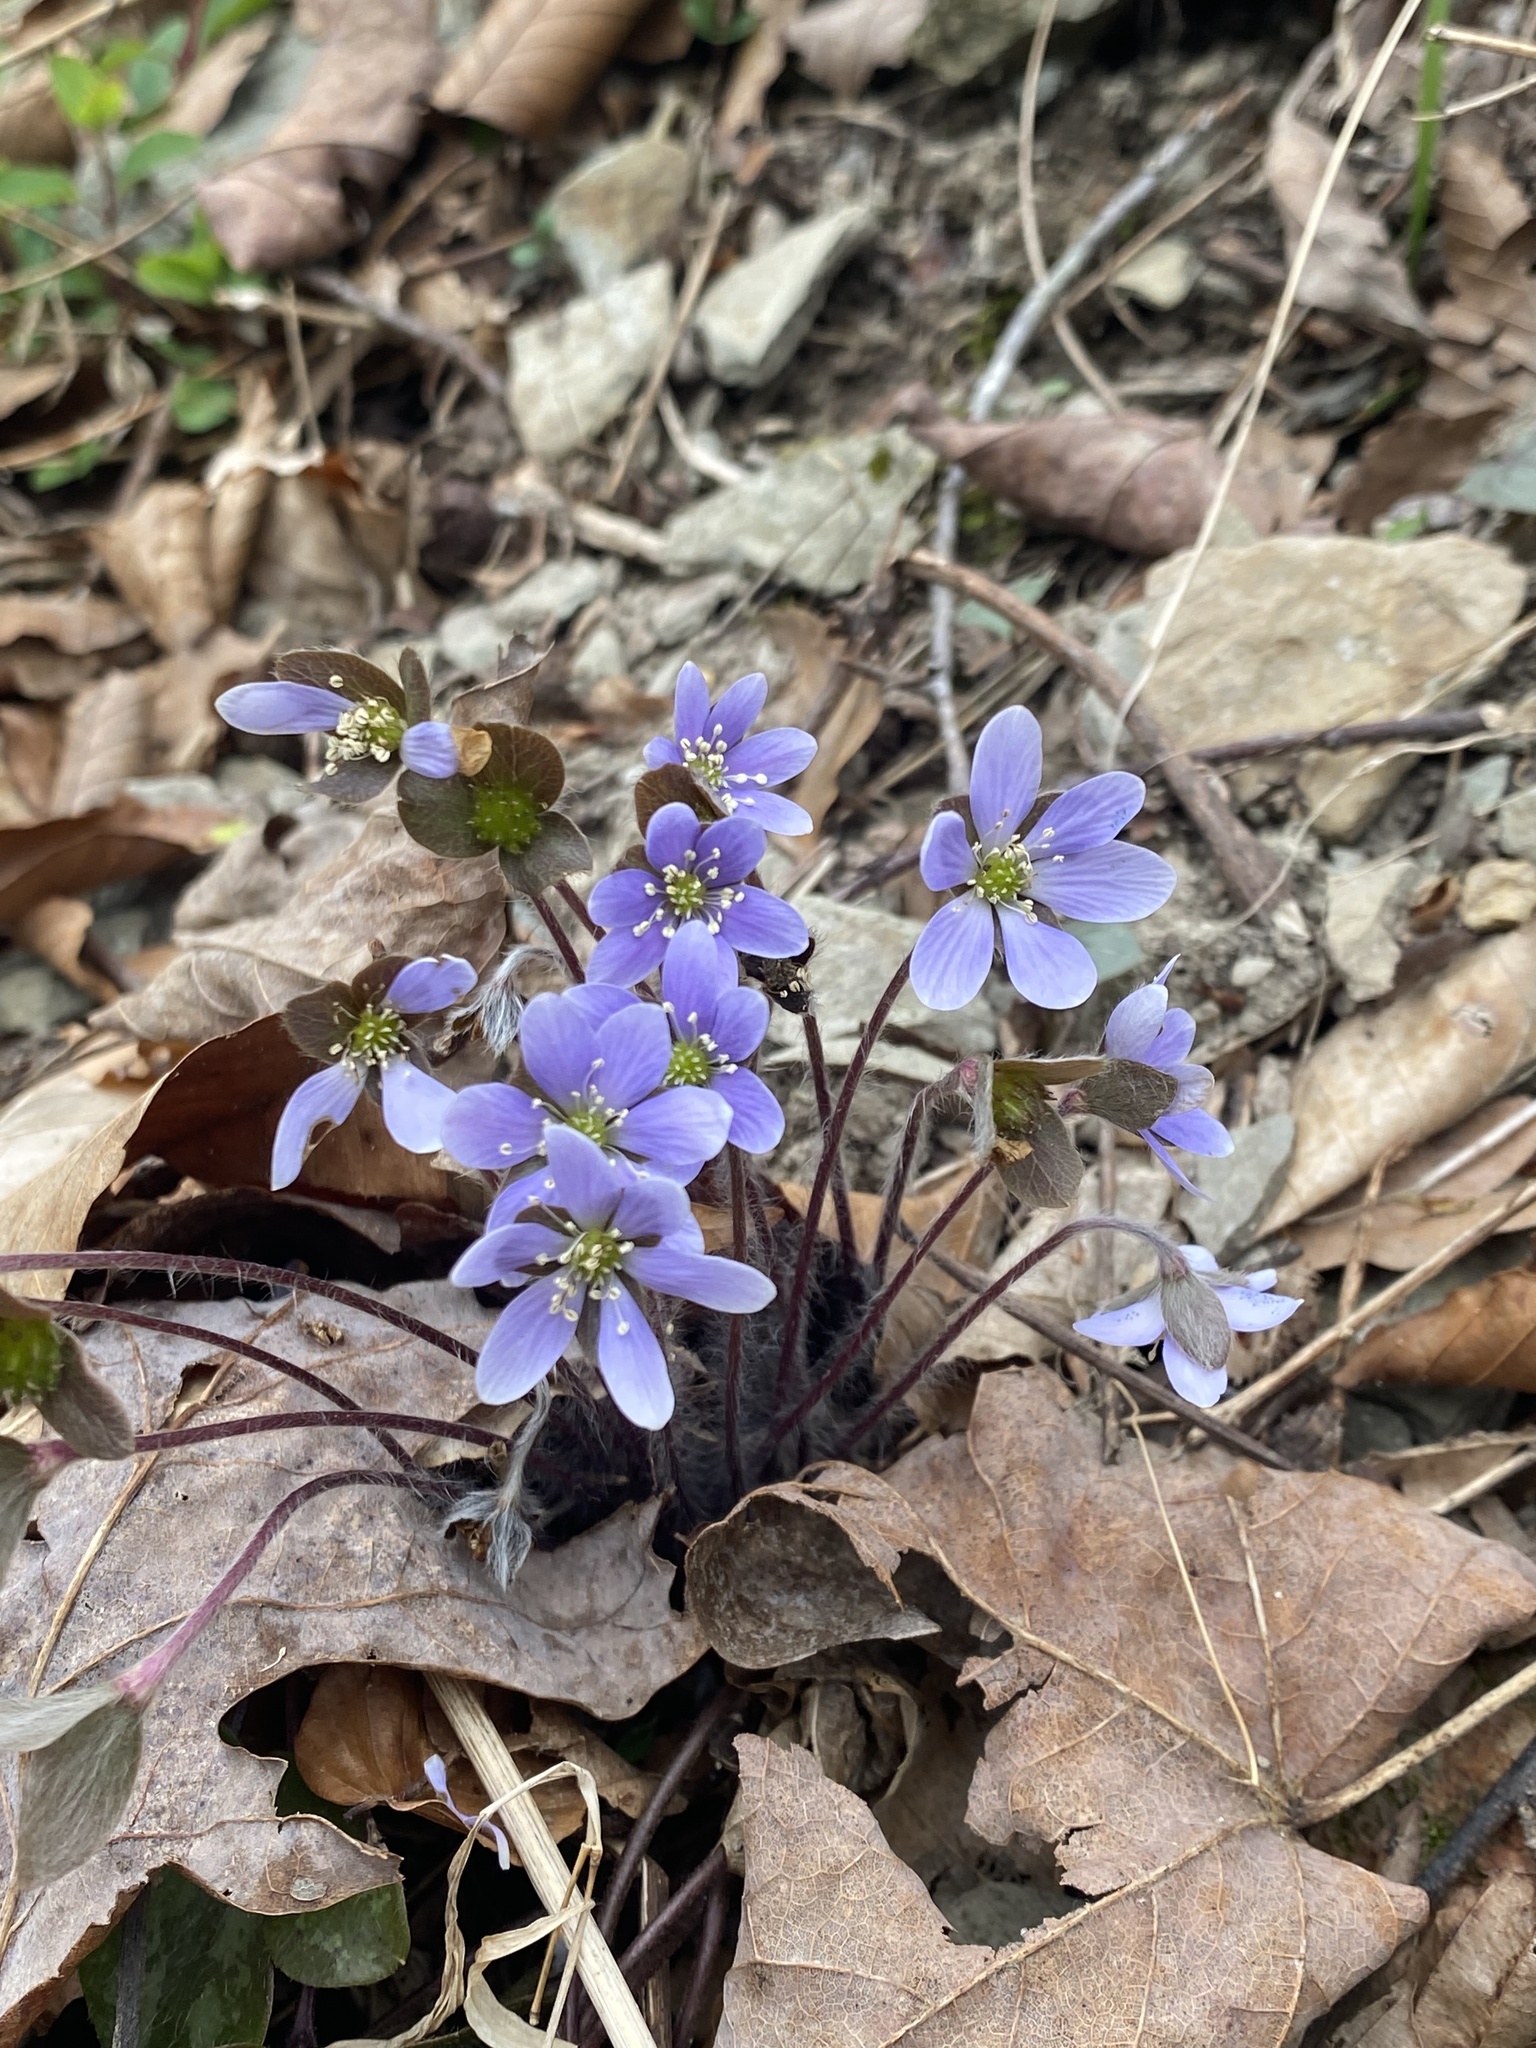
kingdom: Plantae
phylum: Tracheophyta
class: Magnoliopsida
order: Ranunculales
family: Ranunculaceae
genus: Hepatica
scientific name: Hepatica americana
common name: American hepatica
